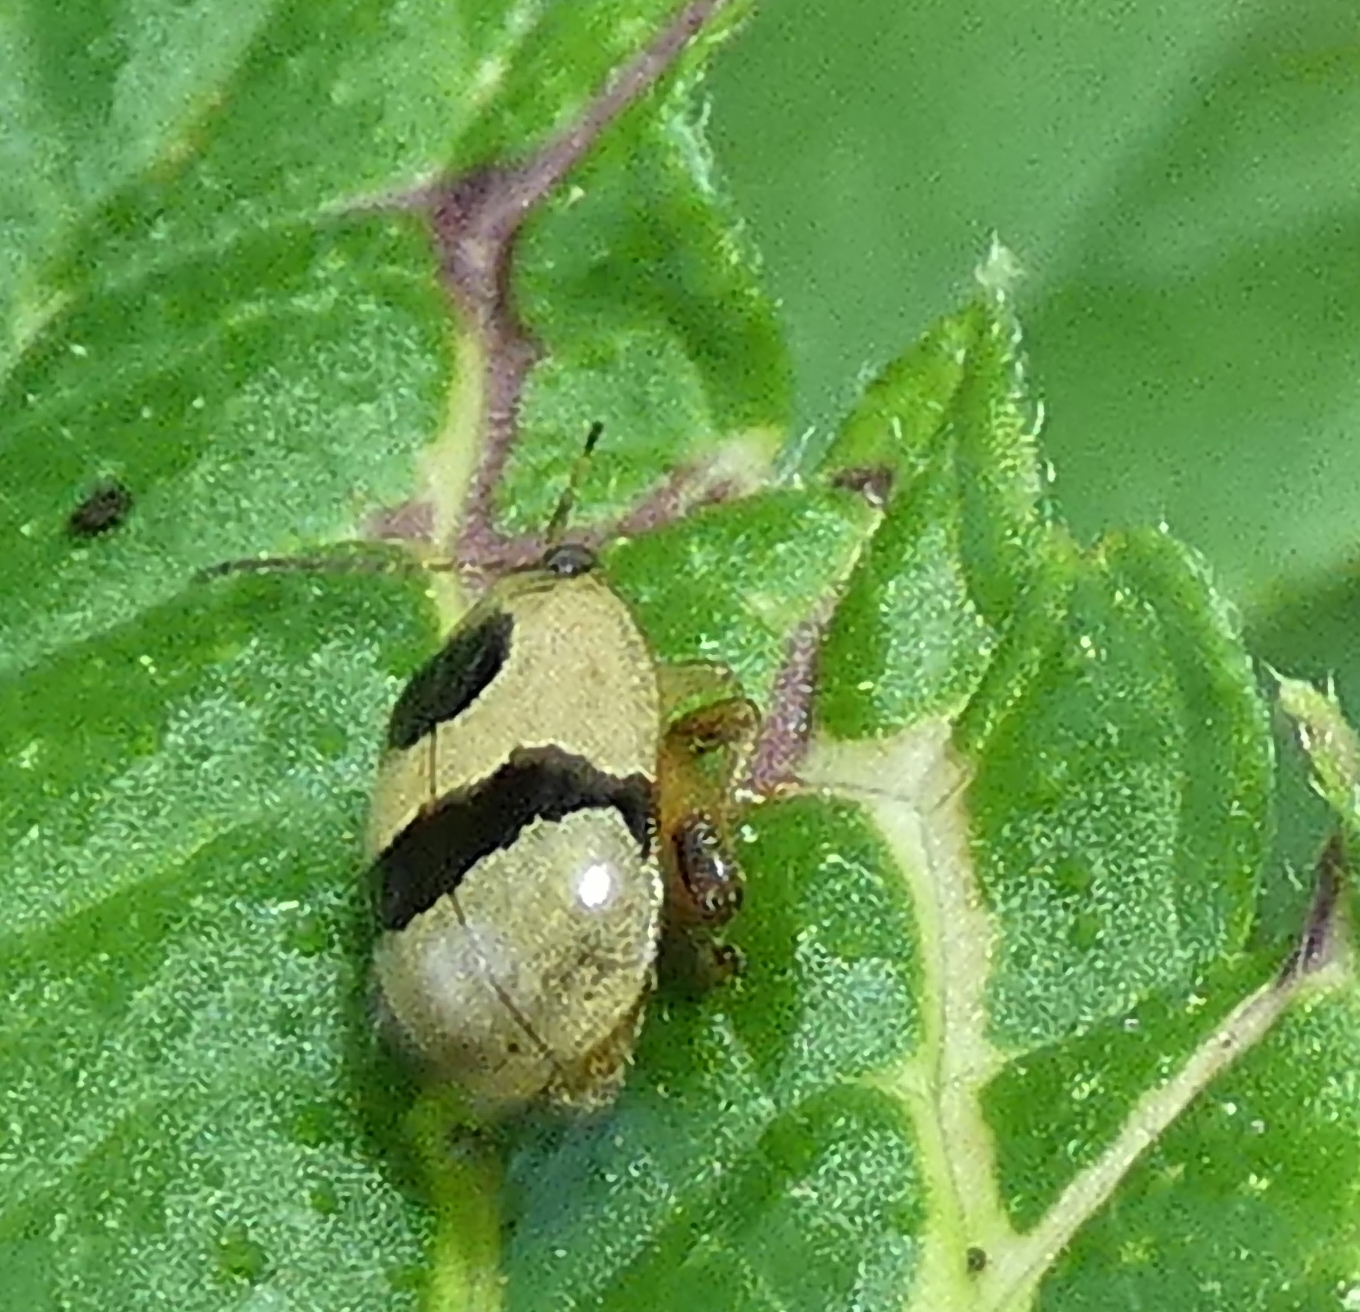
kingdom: Animalia
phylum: Arthropoda
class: Insecta
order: Coleoptera
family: Chrysomelidae
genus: Alagoasa
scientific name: Alagoasa
